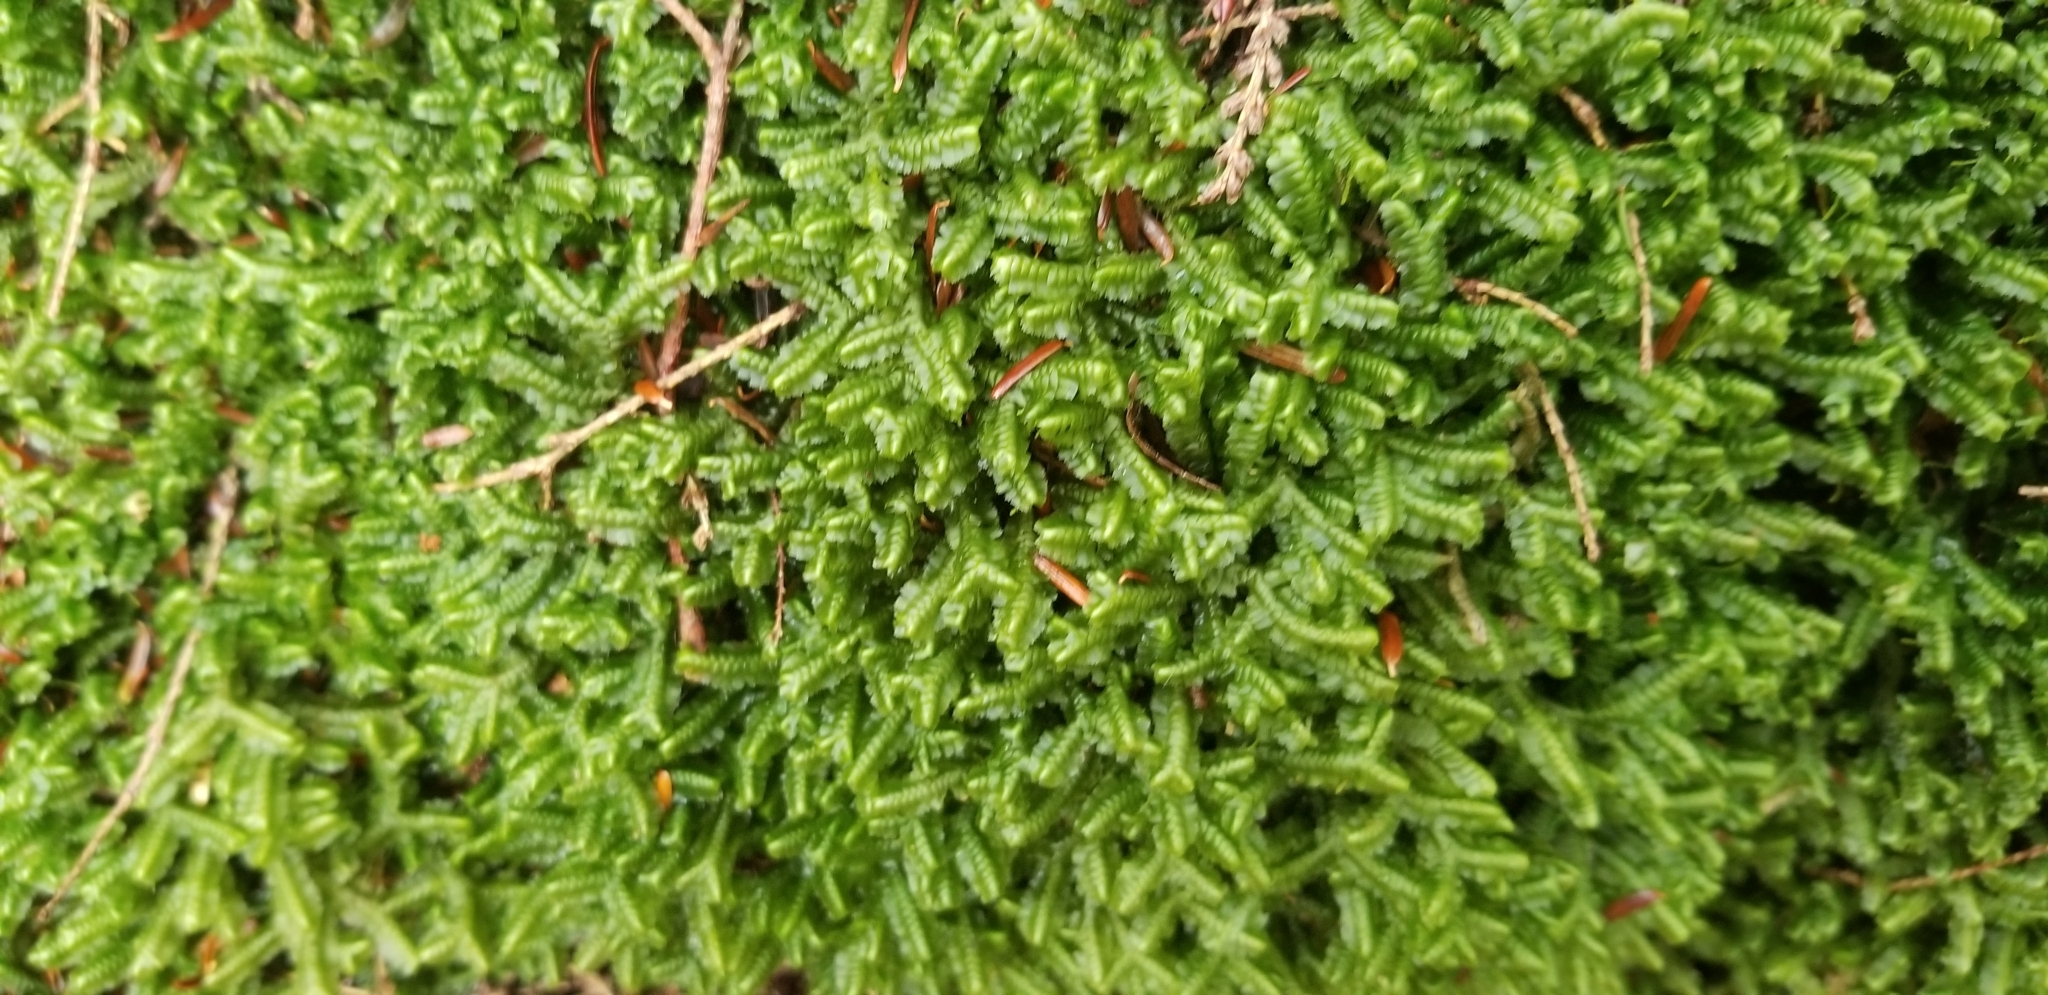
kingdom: Plantae
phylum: Marchantiophyta
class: Jungermanniopsida
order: Jungermanniales
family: Lepidoziaceae
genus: Bazzania
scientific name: Bazzania trilobata
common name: Three-lobed whipwort
